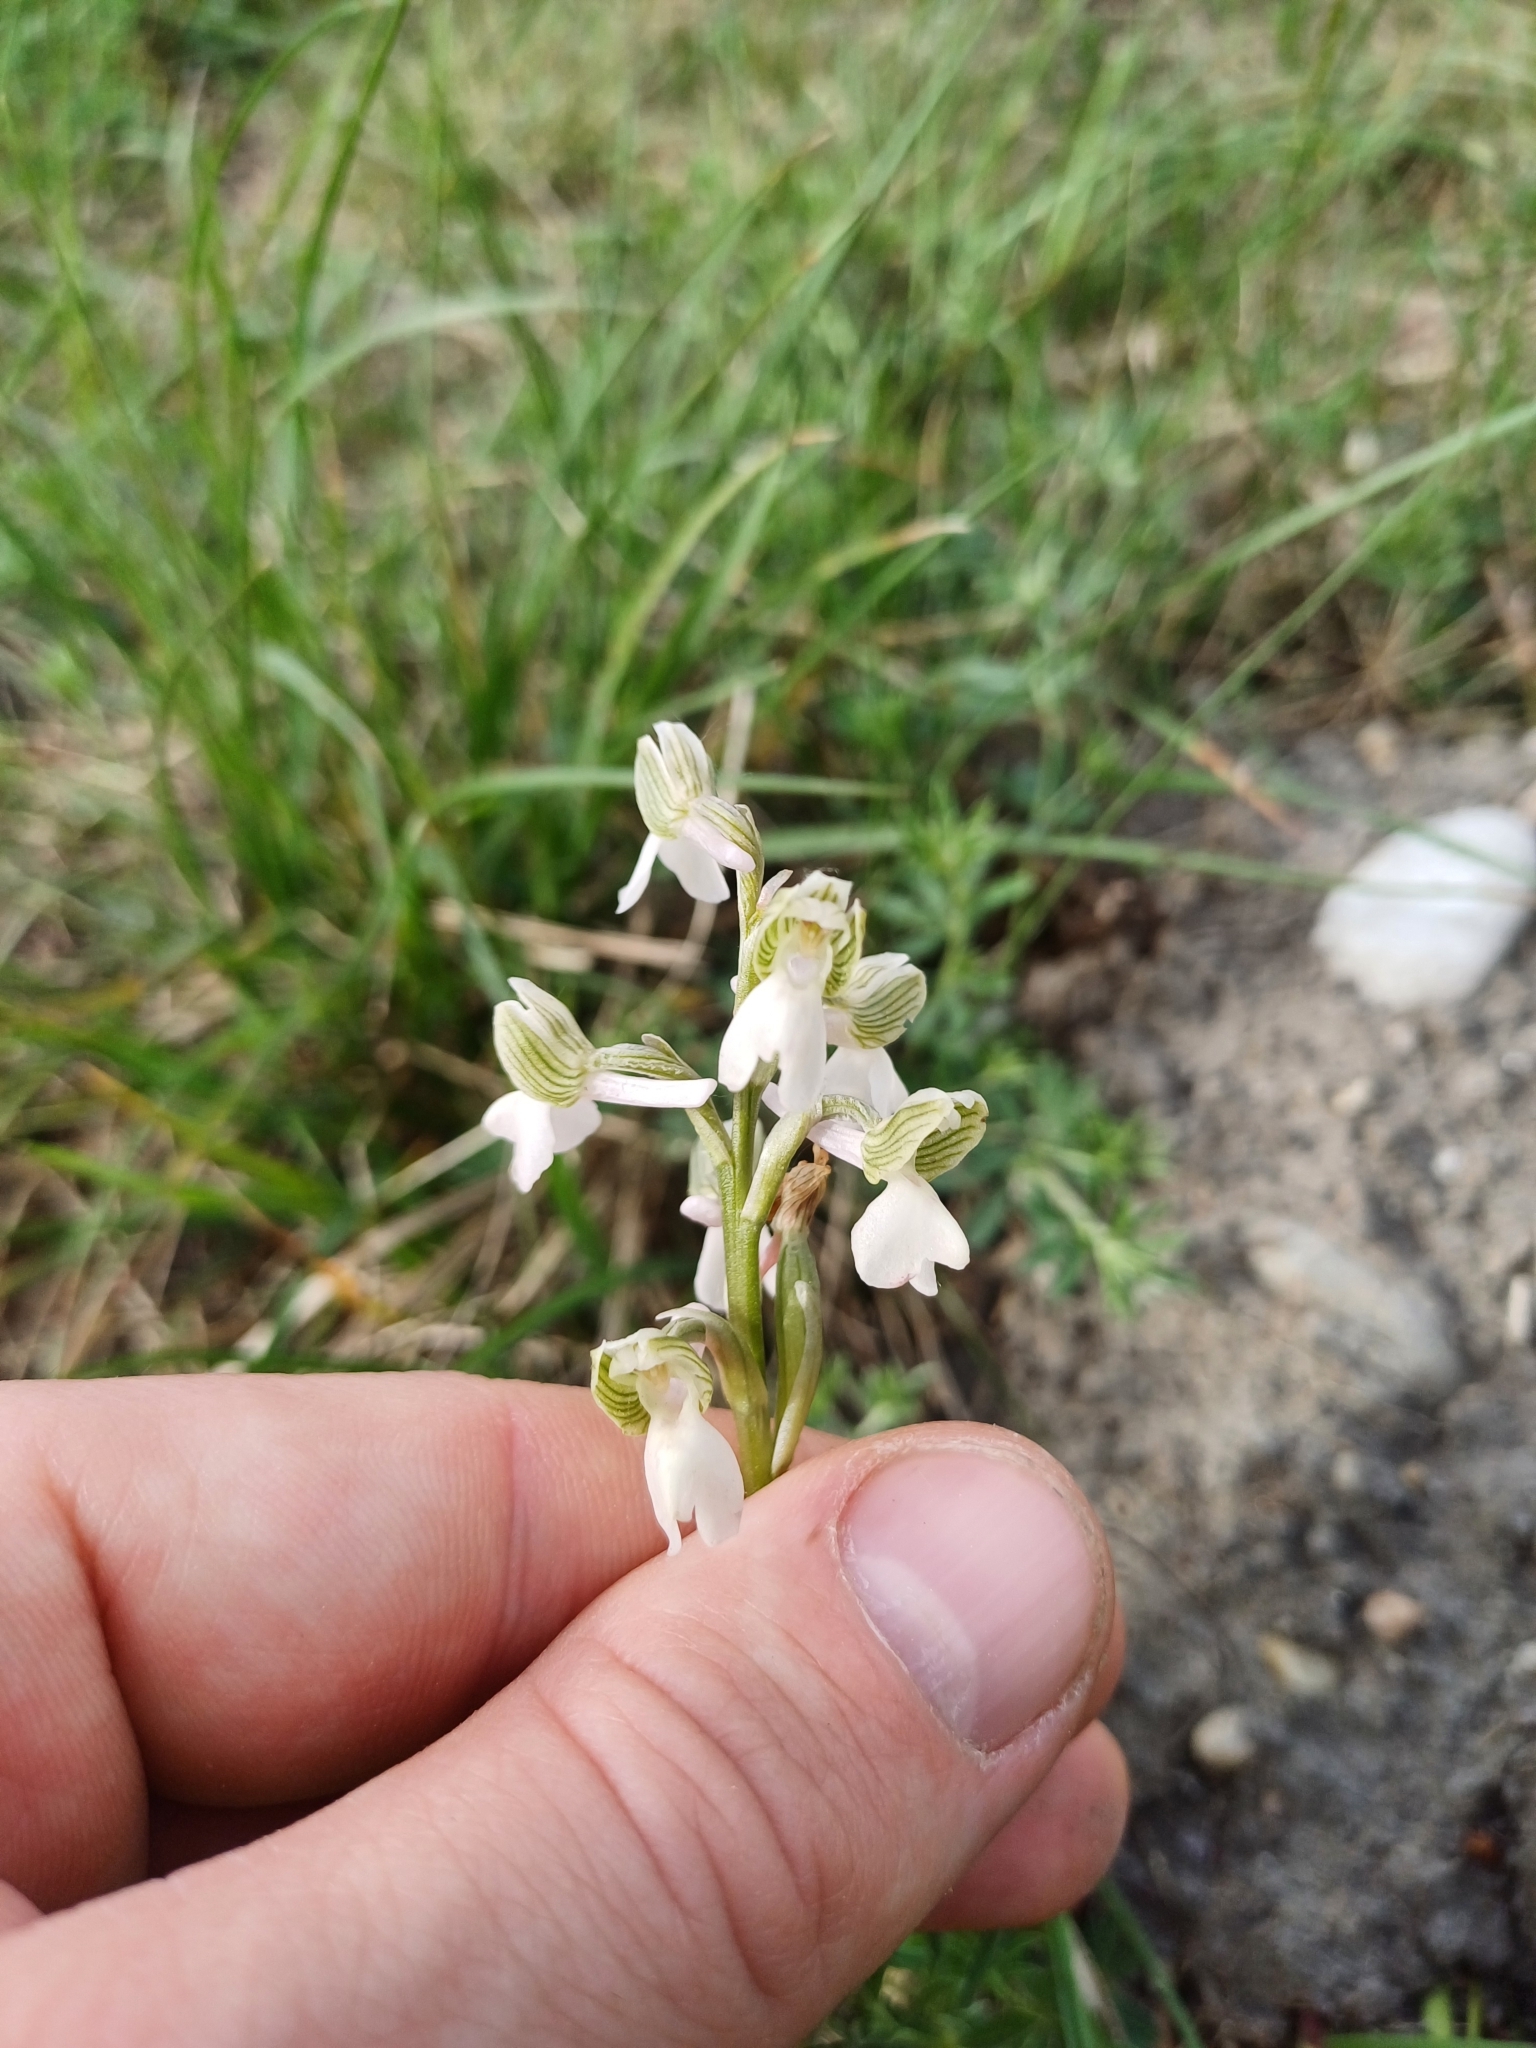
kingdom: Plantae
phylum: Tracheophyta
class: Liliopsida
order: Asparagales
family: Orchidaceae
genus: Anacamptis
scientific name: Anacamptis morio
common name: Green-winged orchid
